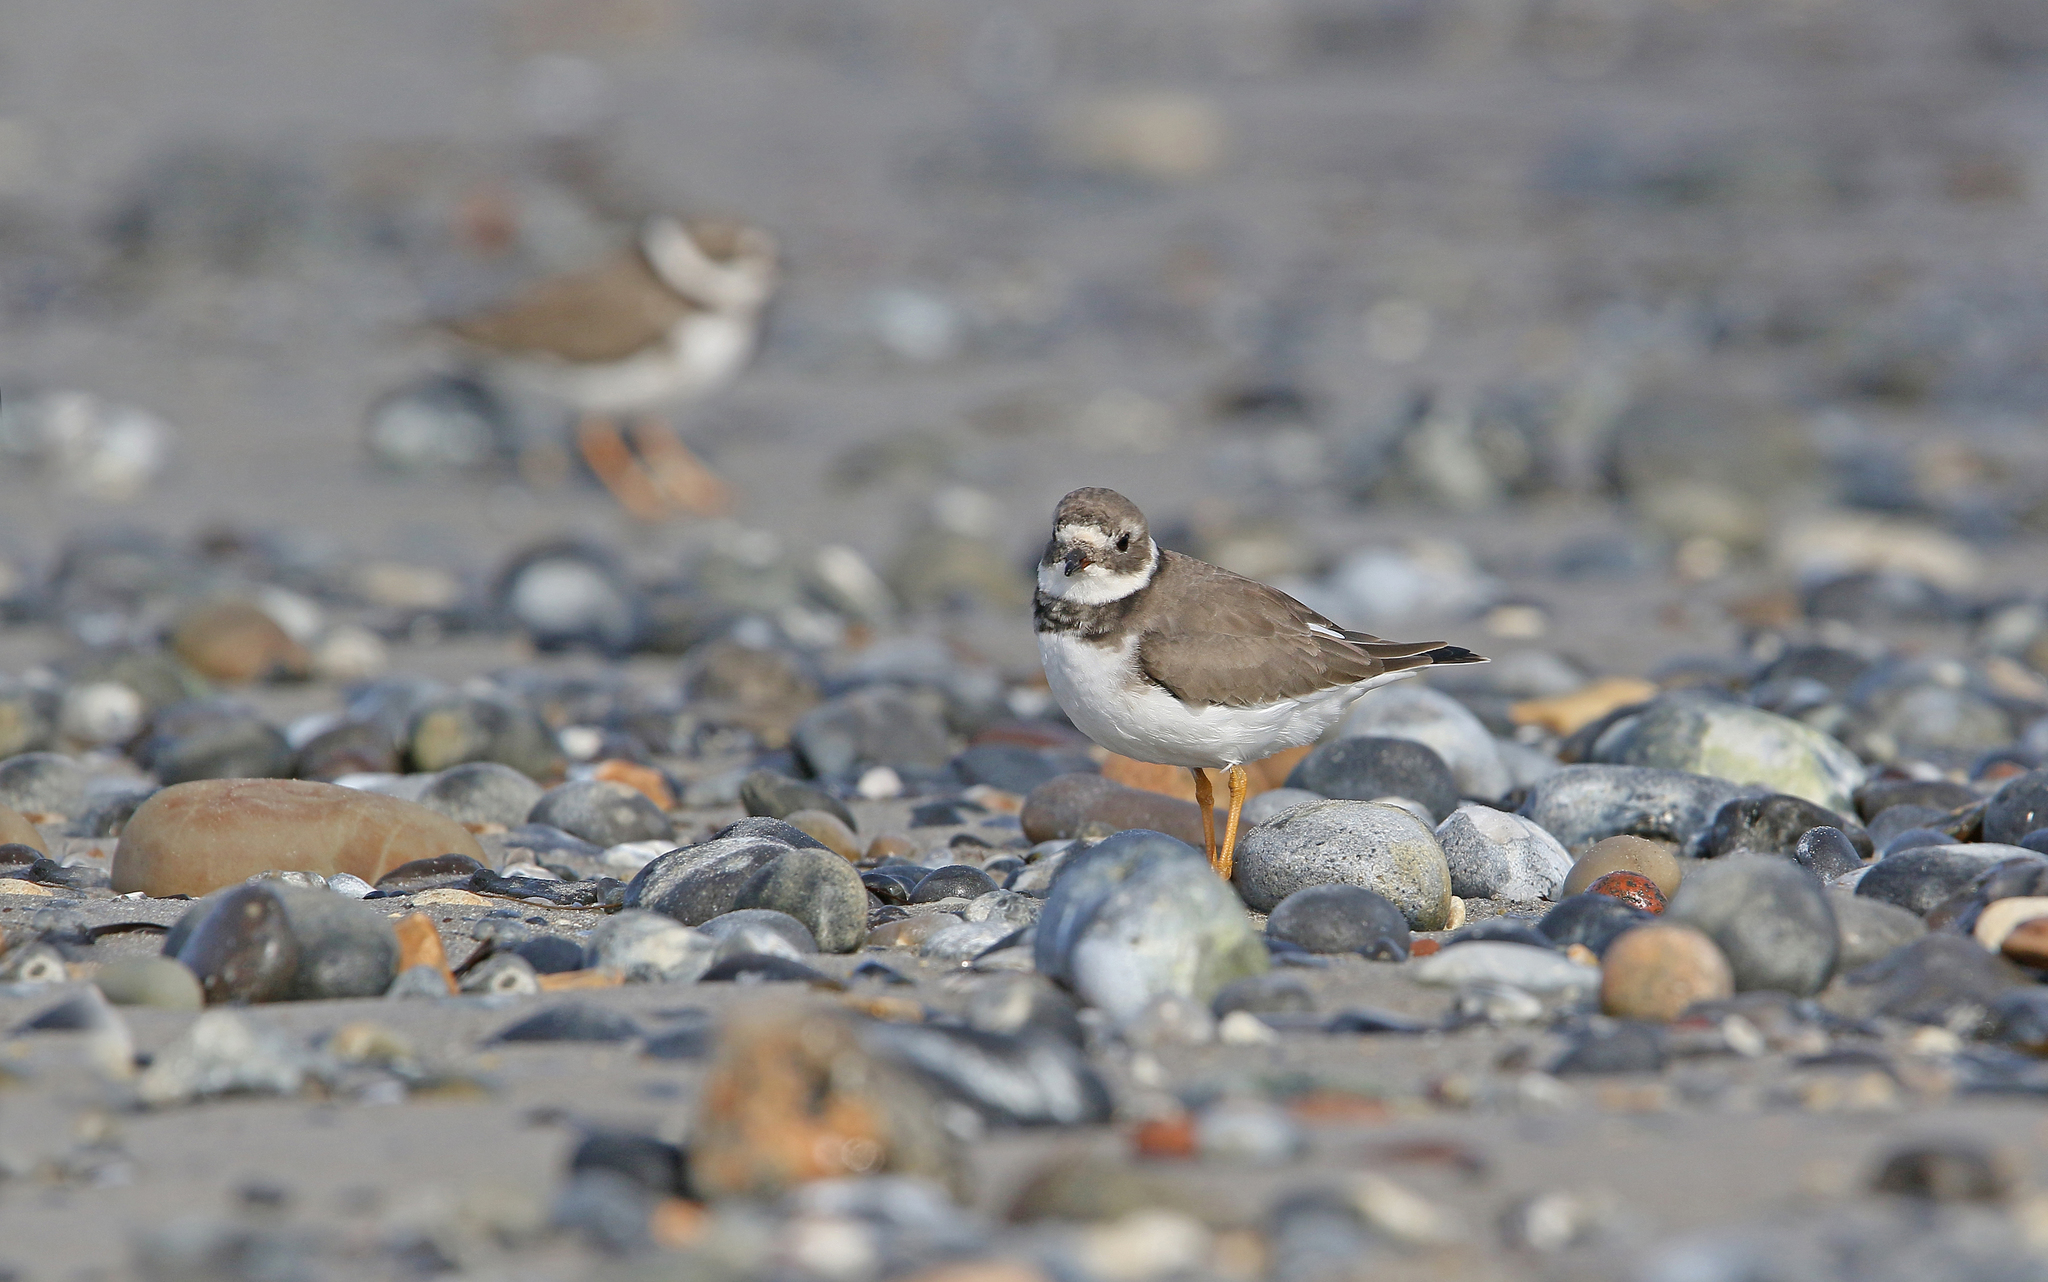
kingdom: Animalia
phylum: Chordata
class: Aves
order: Charadriiformes
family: Charadriidae
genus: Charadrius
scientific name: Charadrius hiaticula
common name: Common ringed plover
